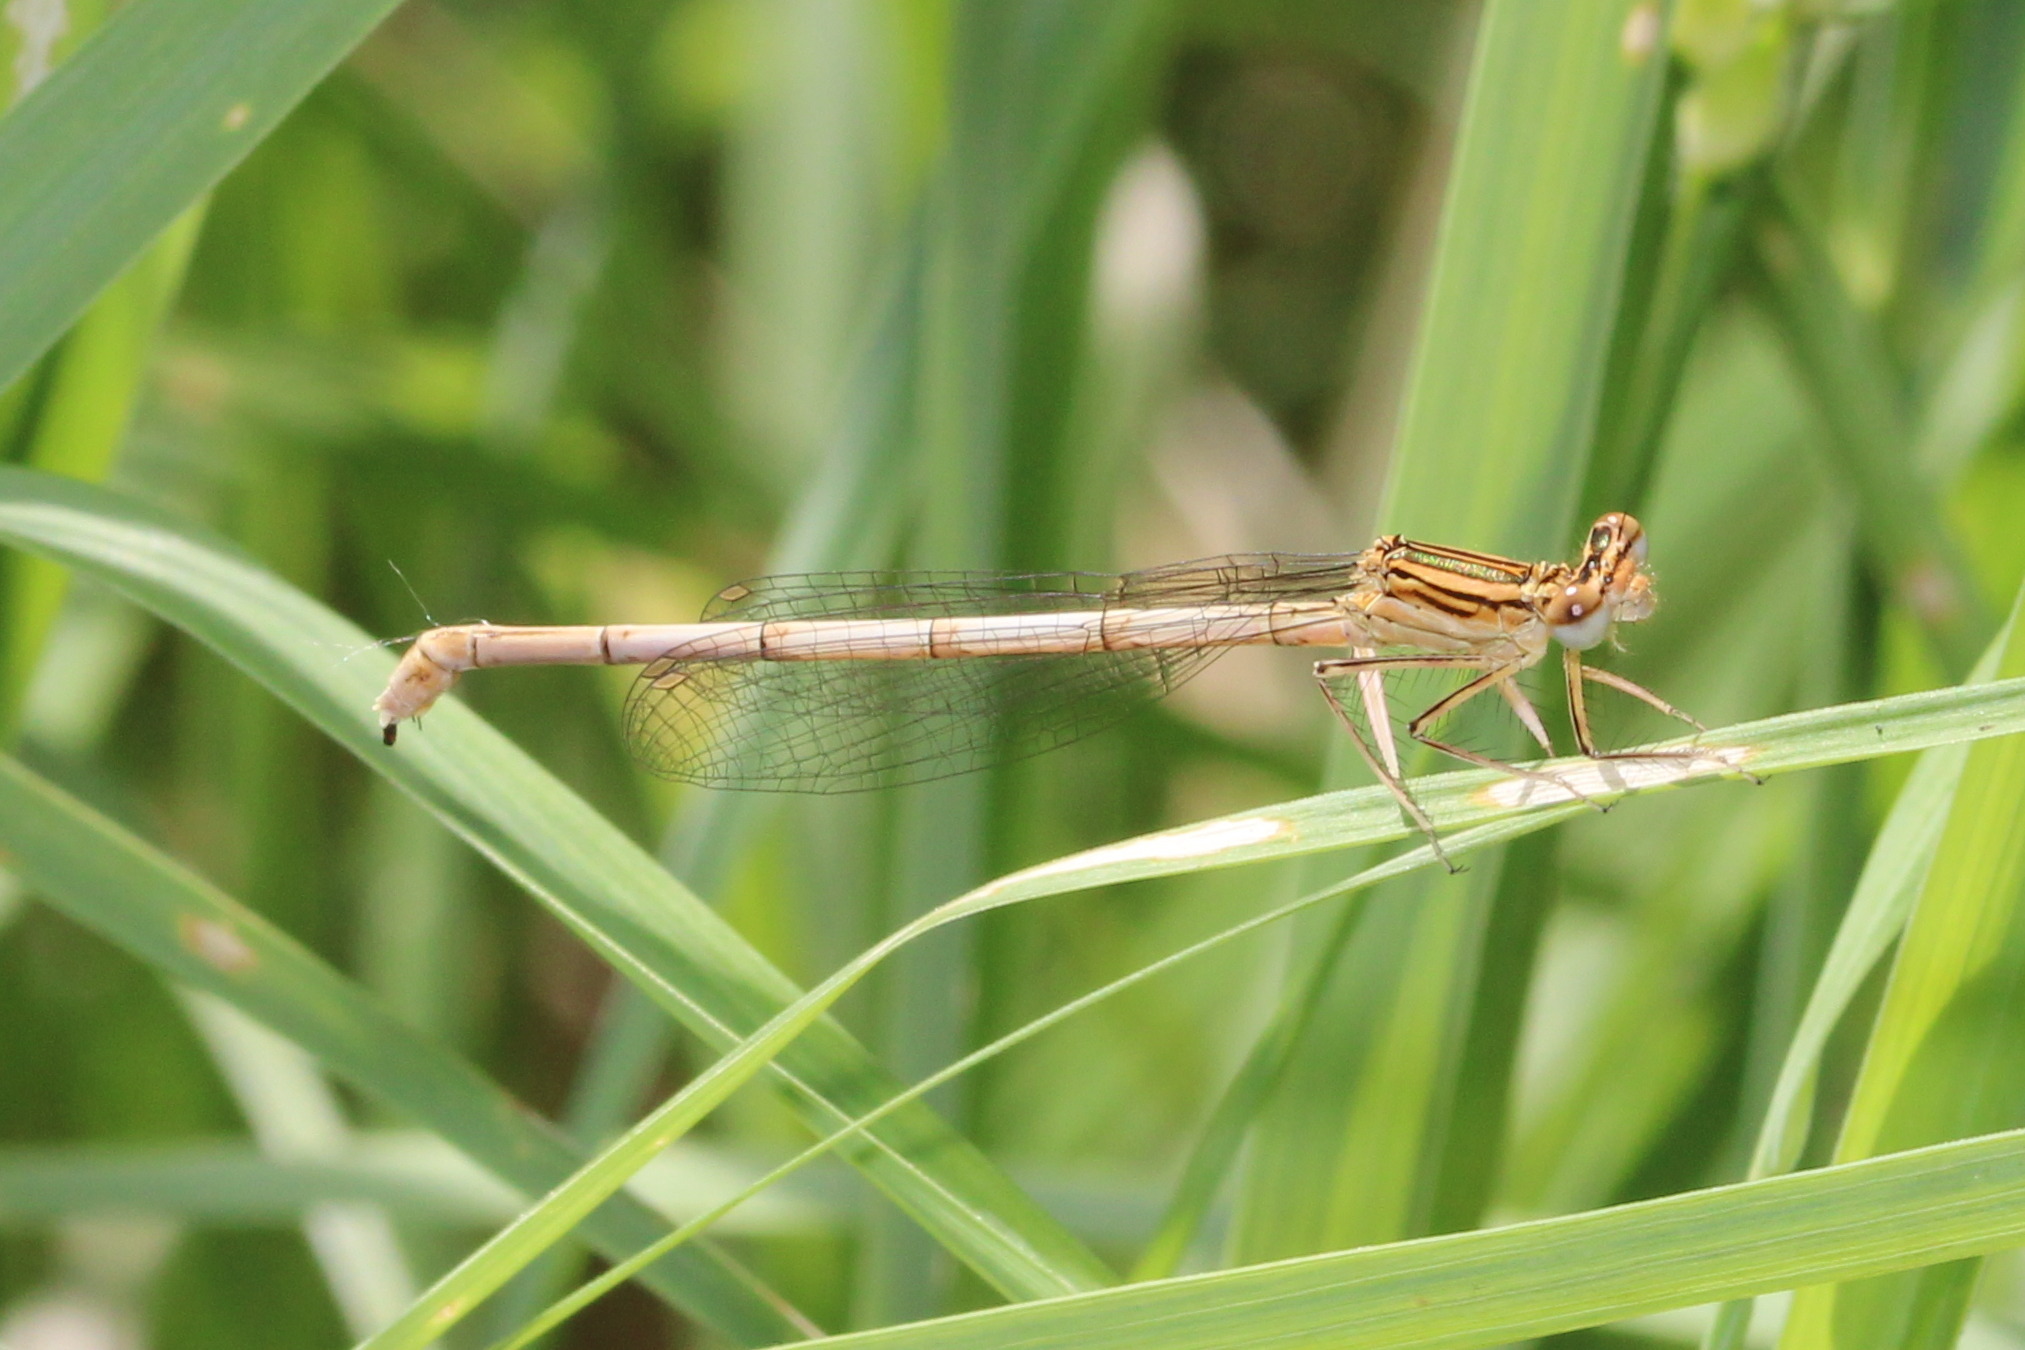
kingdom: Animalia
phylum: Arthropoda
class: Insecta
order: Odonata
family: Platycnemididae
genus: Platycnemis
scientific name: Platycnemis pennipes
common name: White-legged damselfly
